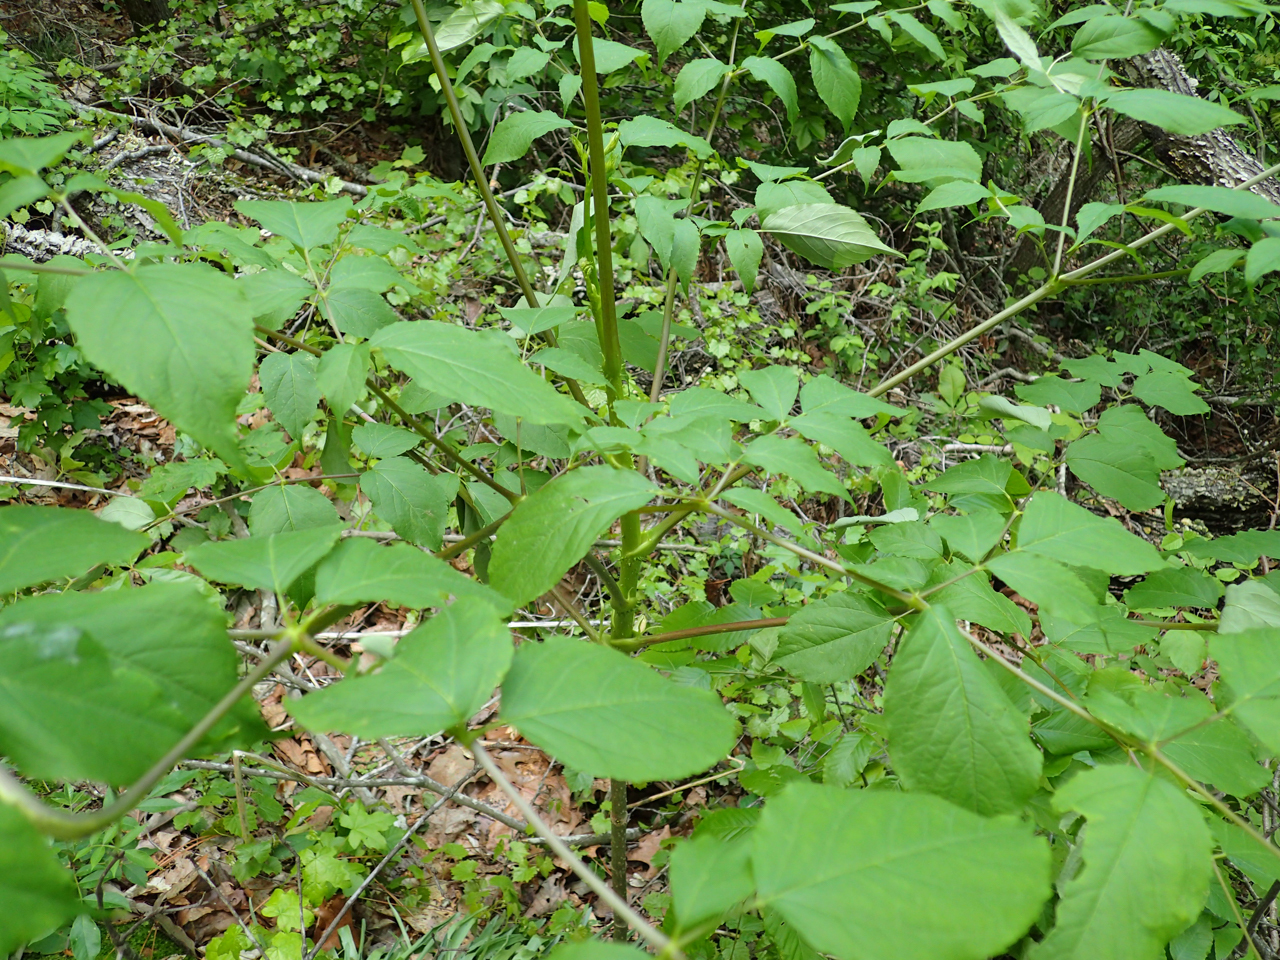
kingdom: Plantae
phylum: Tracheophyta
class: Magnoliopsida
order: Apiales
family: Araliaceae
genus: Aralia
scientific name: Aralia spinosa
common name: Hercules'-club
